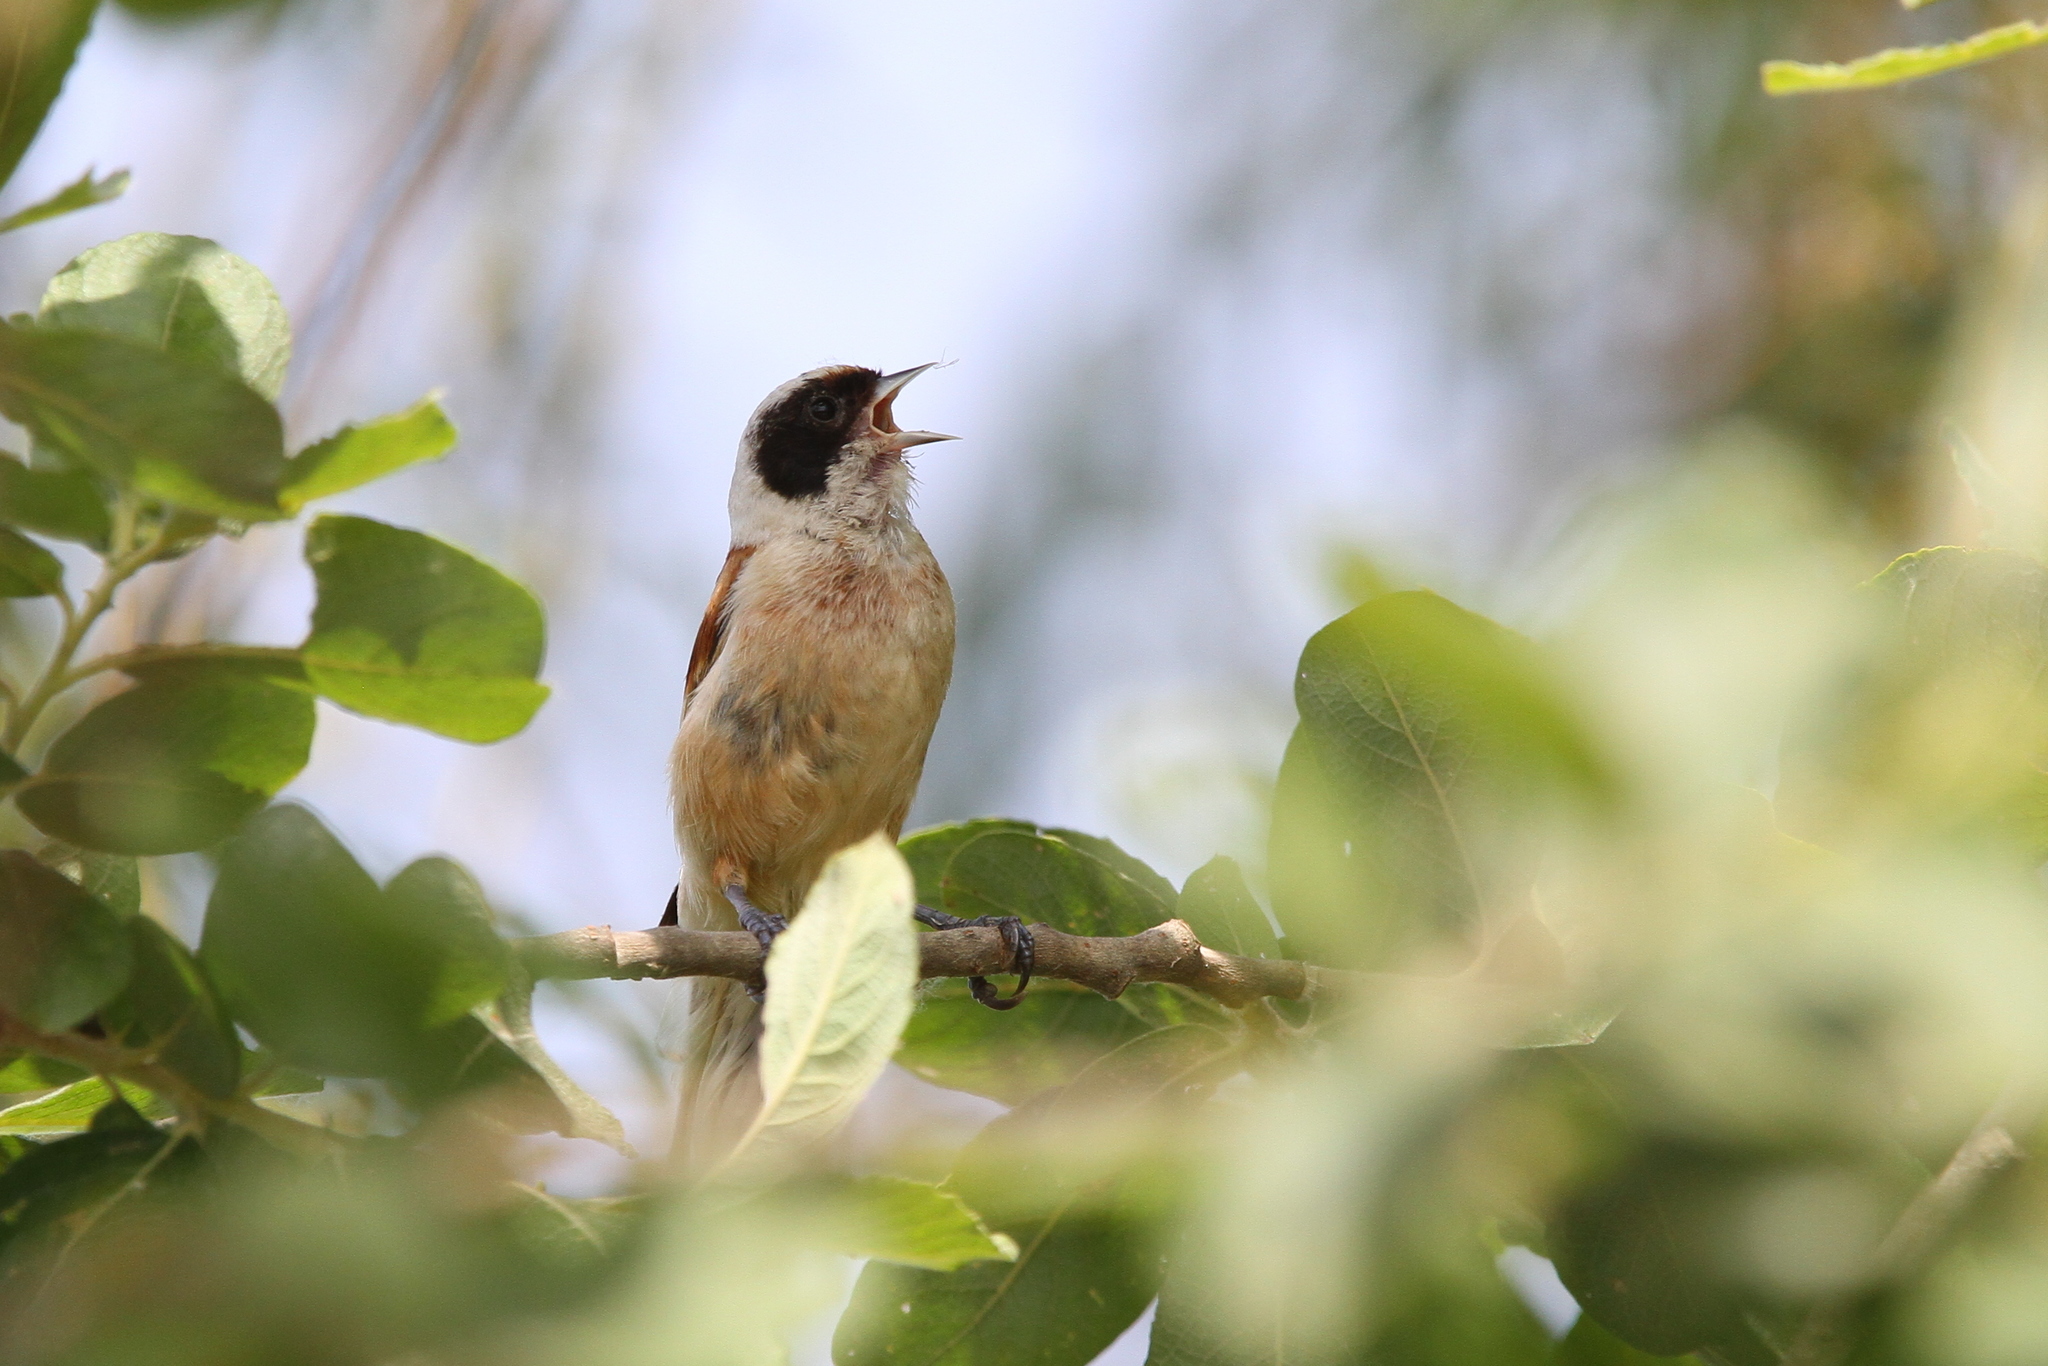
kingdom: Animalia
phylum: Chordata
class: Aves
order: Passeriformes
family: Remizidae
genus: Remiz
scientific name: Remiz pendulinus
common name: Eurasian penduline tit
